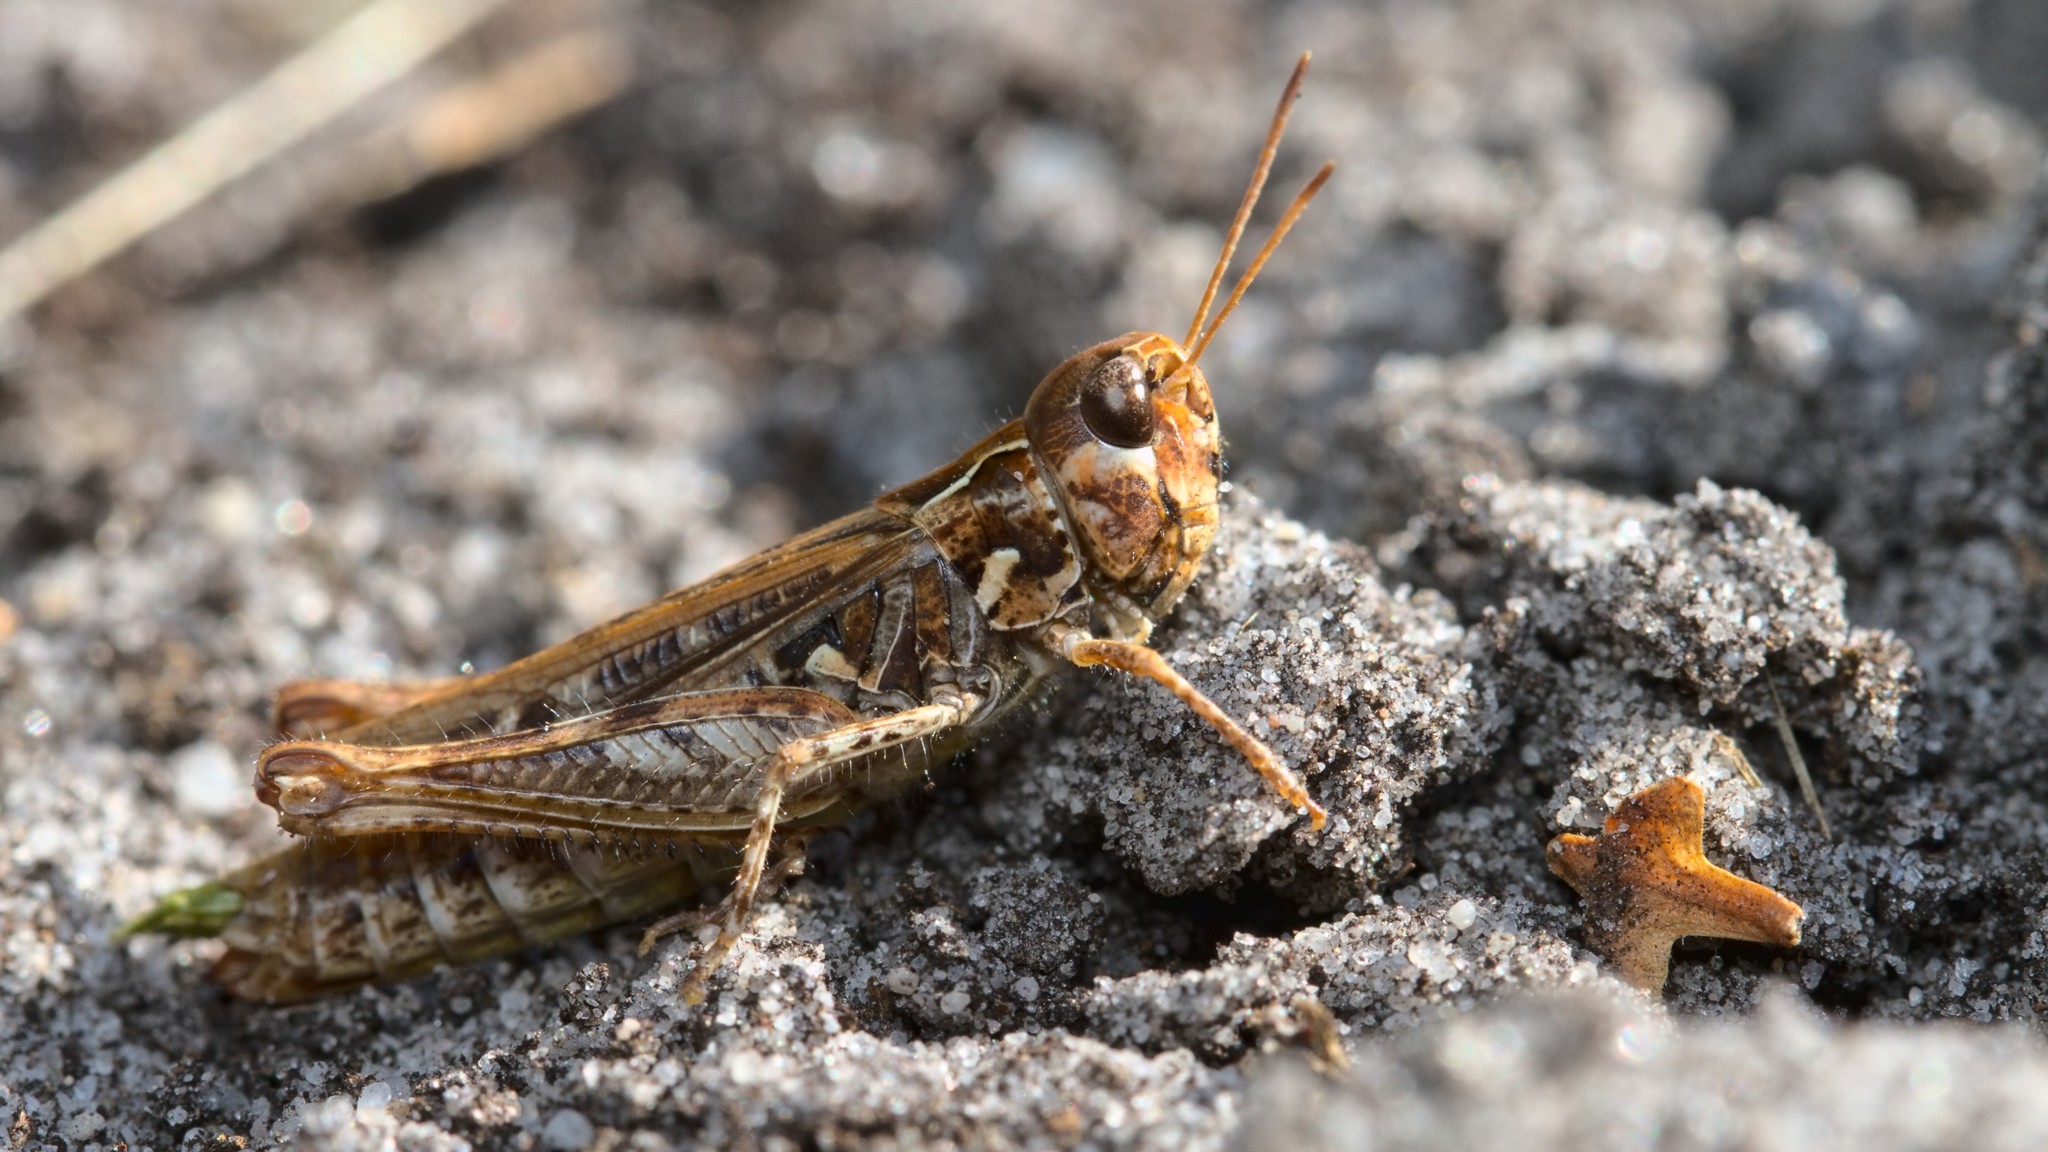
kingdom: Animalia
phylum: Arthropoda
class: Insecta
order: Orthoptera
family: Acrididae
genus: Myrmeleotettix
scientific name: Myrmeleotettix maculatus
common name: Mottled grasshopper
